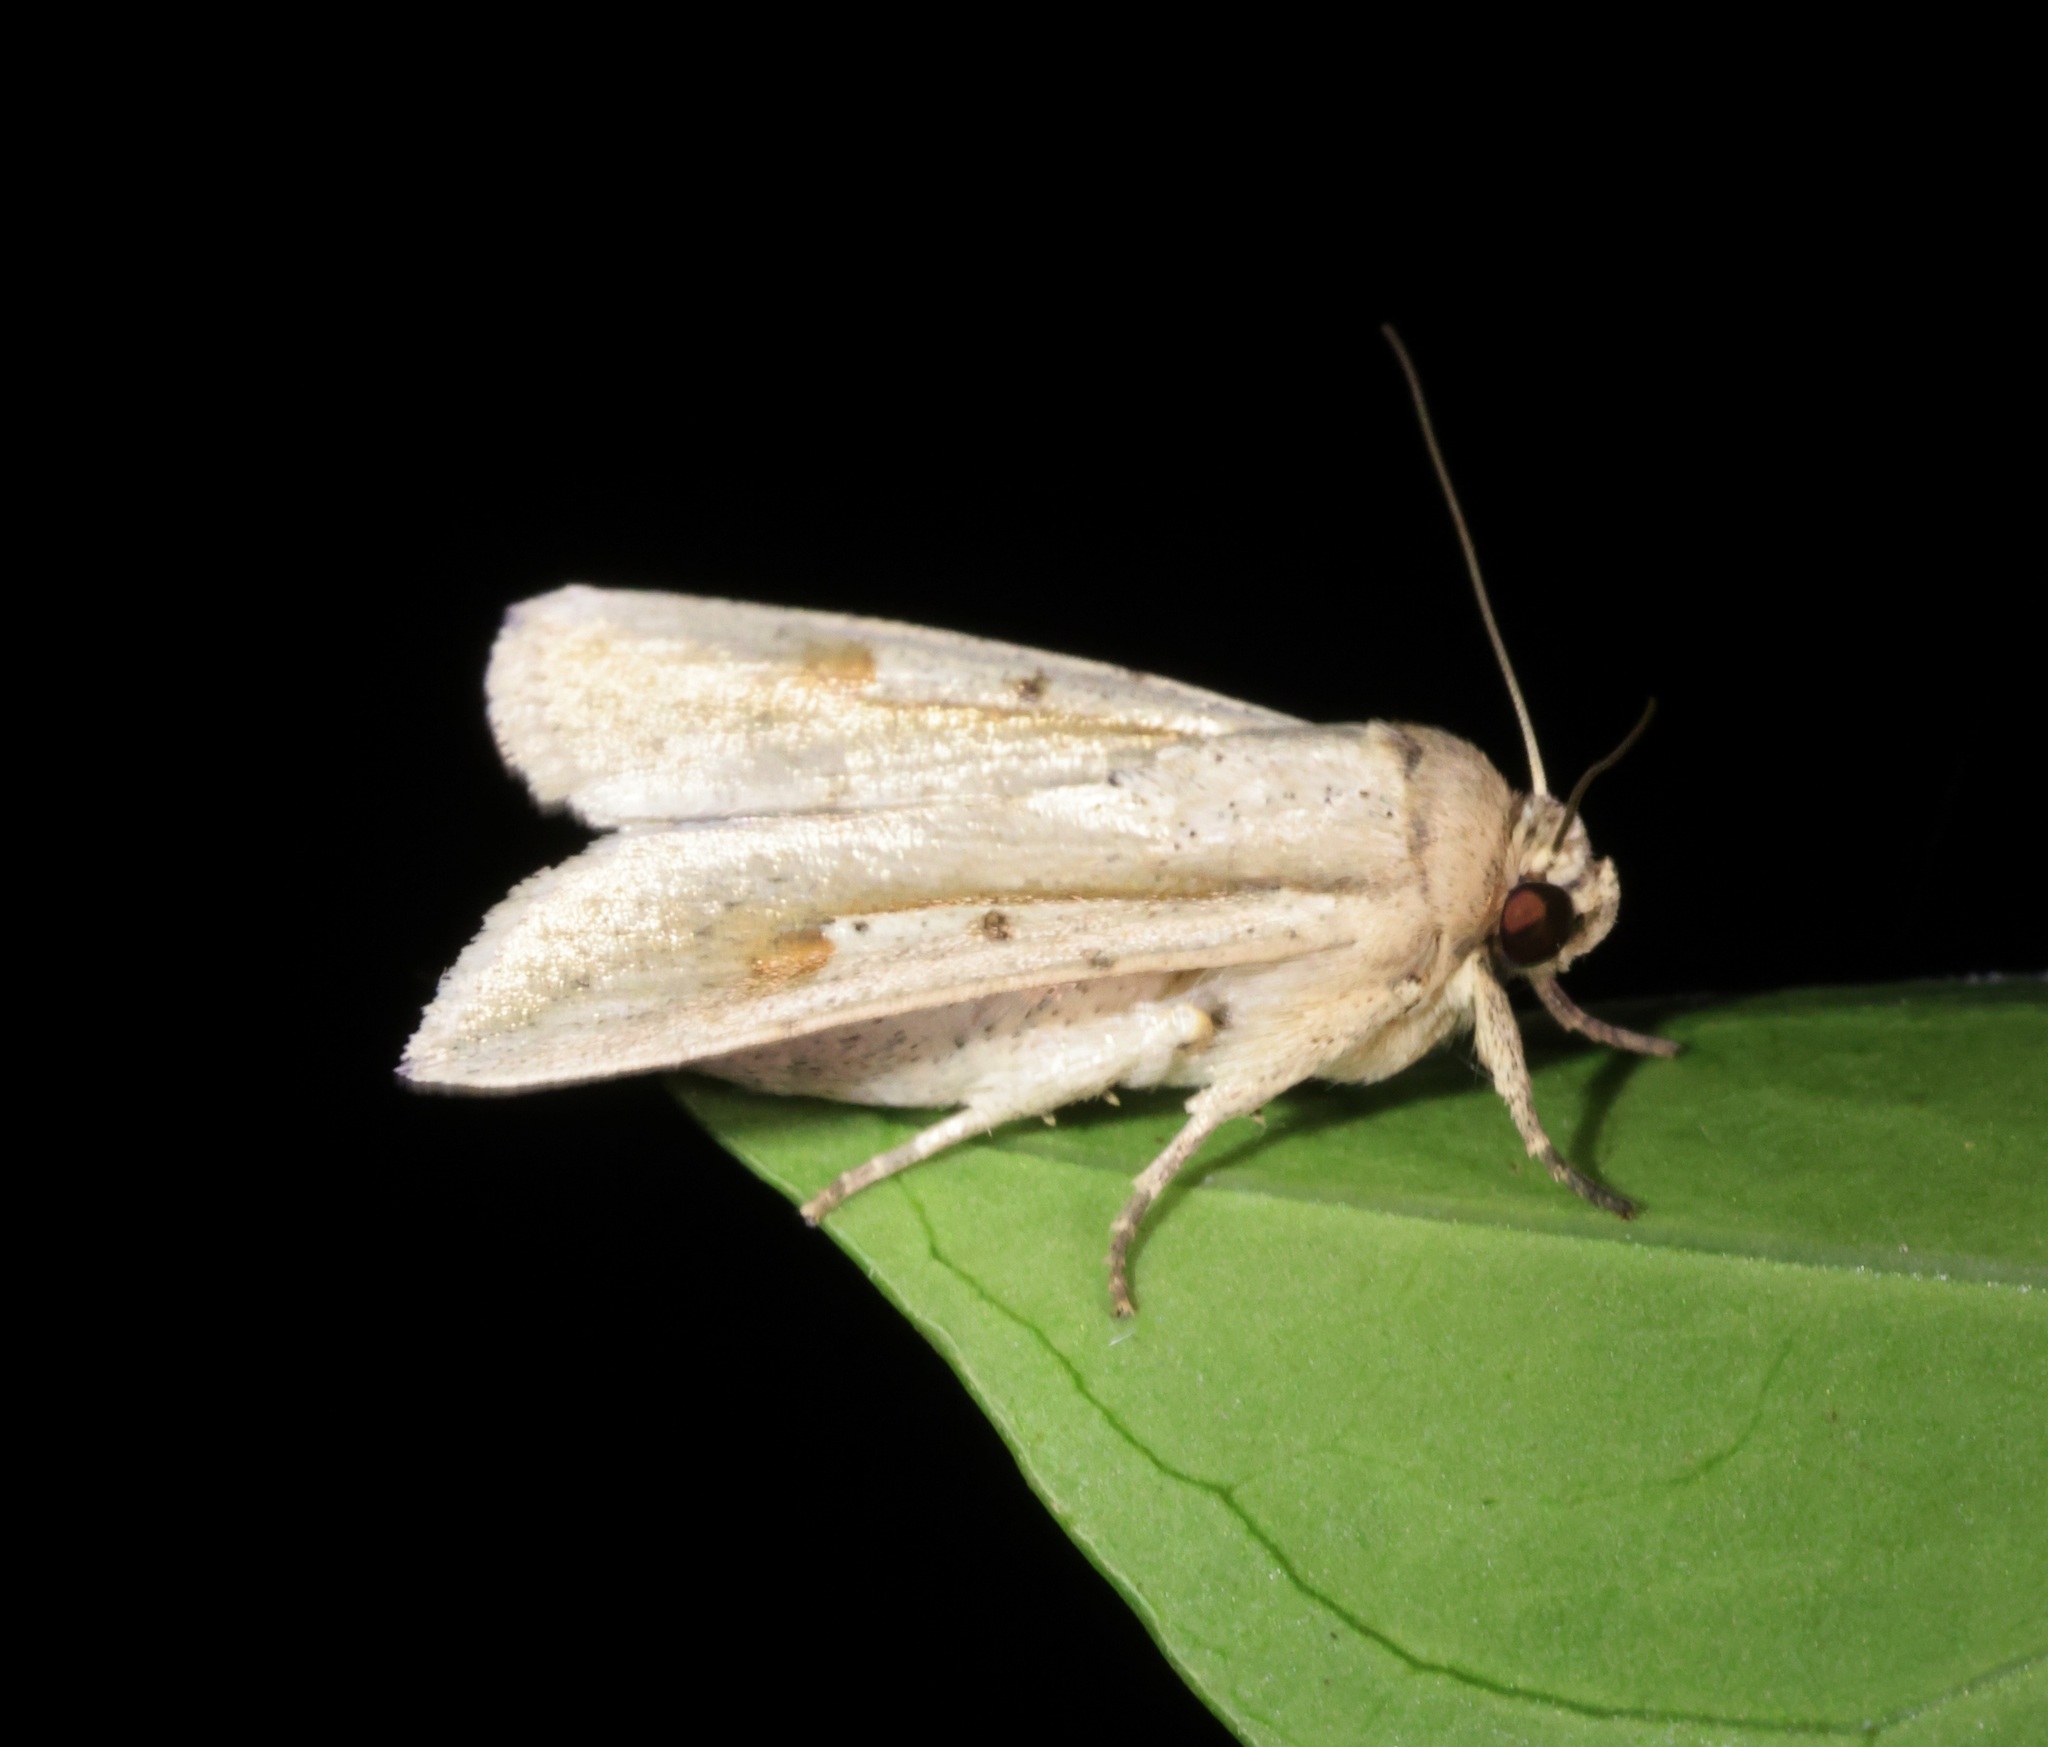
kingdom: Animalia
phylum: Arthropoda
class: Insecta
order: Lepidoptera
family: Noctuidae
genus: Leucania
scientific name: Leucania yu
